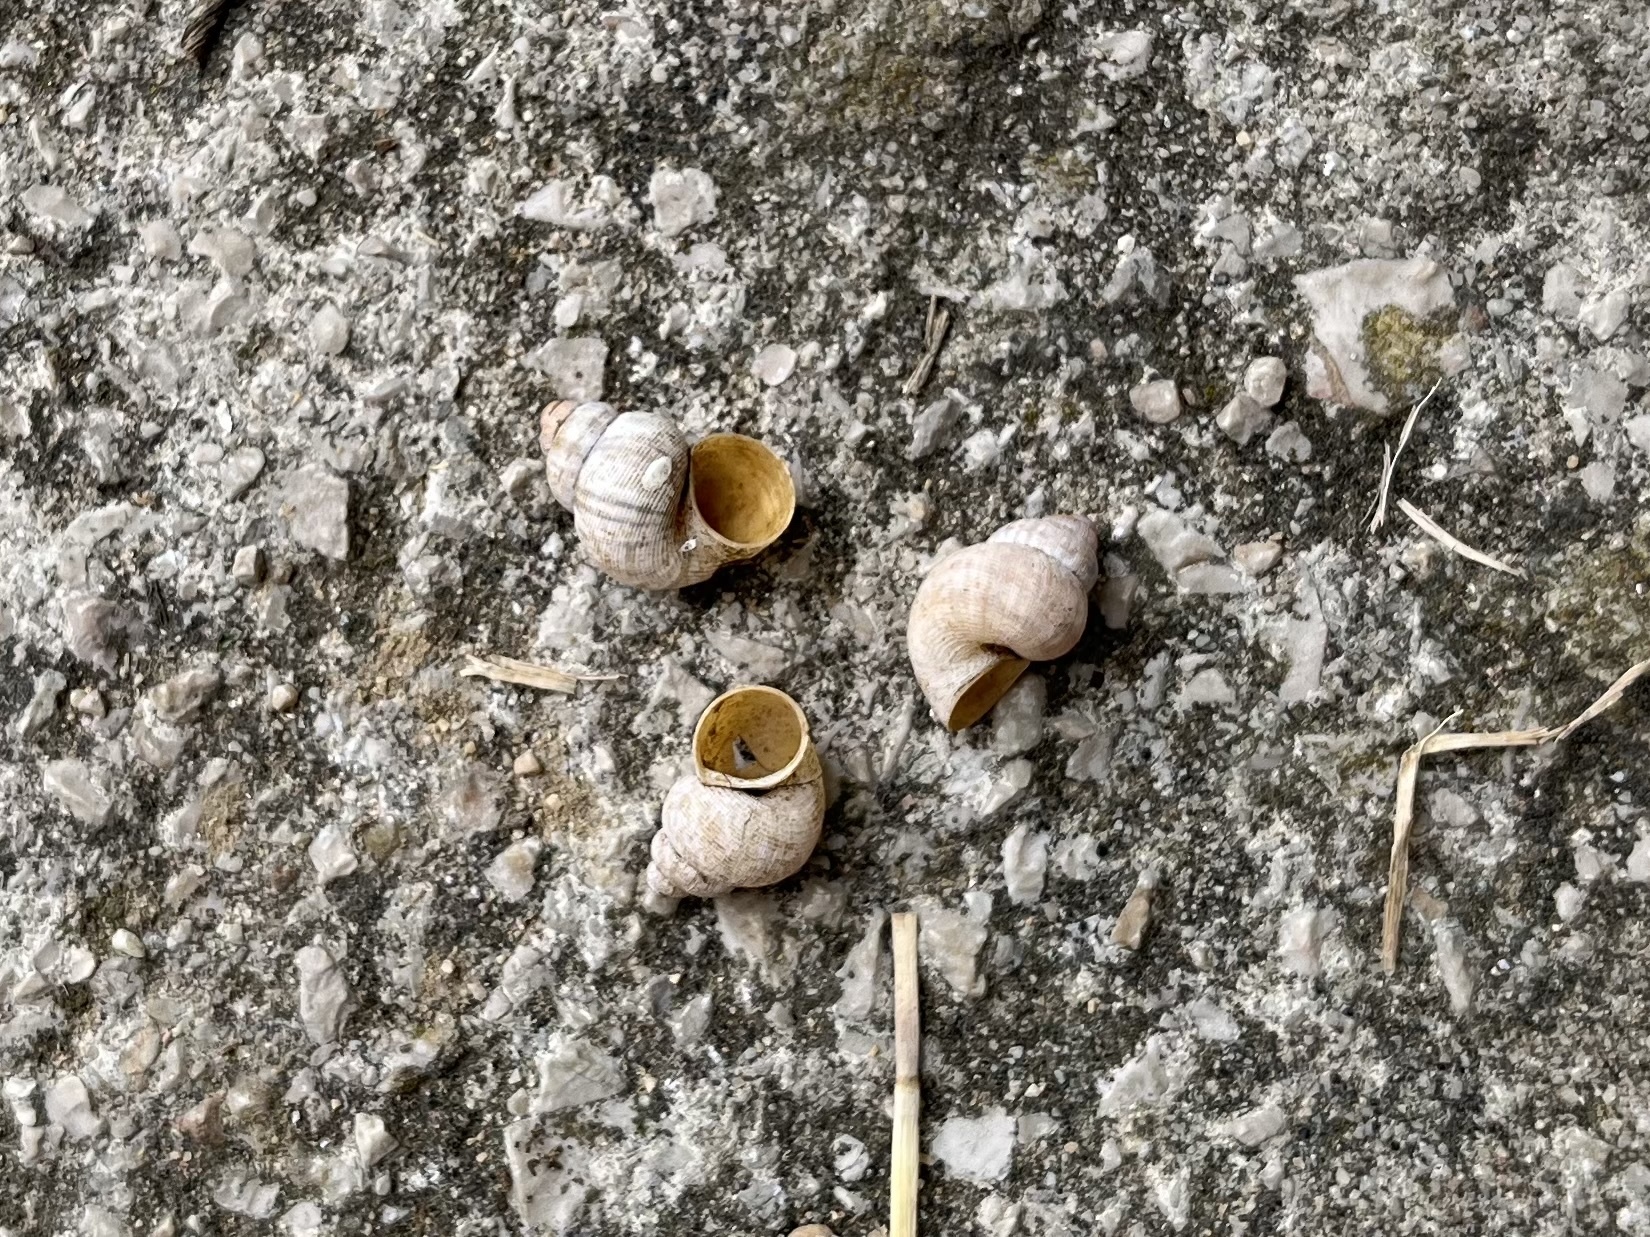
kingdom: Animalia
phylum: Mollusca
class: Gastropoda
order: Littorinimorpha
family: Pomatiidae
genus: Pomatias
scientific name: Pomatias elegans
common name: Red-mouthed snail
